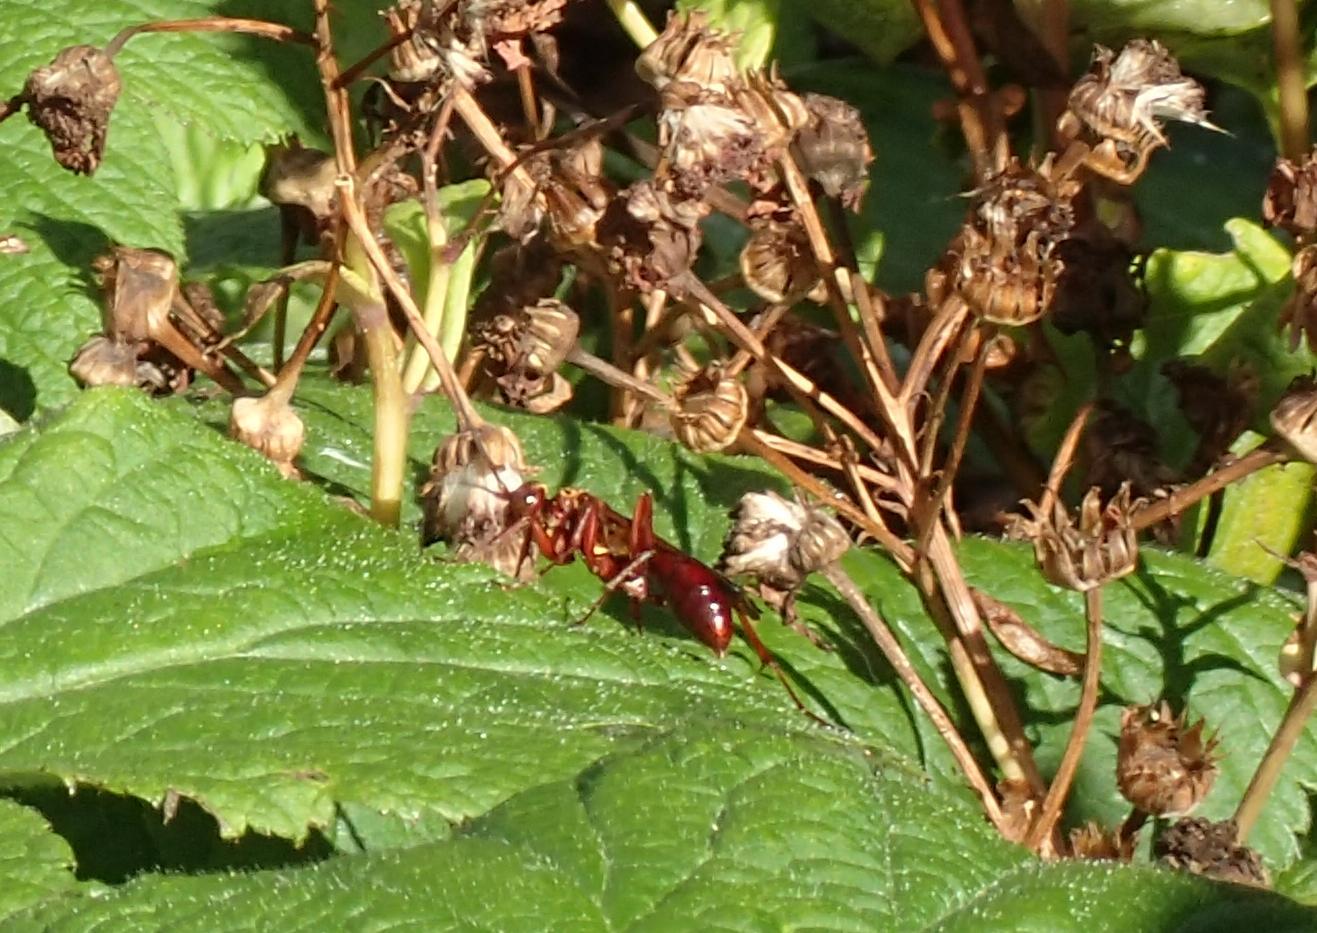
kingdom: Animalia
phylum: Arthropoda
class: Insecta
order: Hymenoptera
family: Pompilidae
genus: Sphictostethus
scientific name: Sphictostethus nitidus
